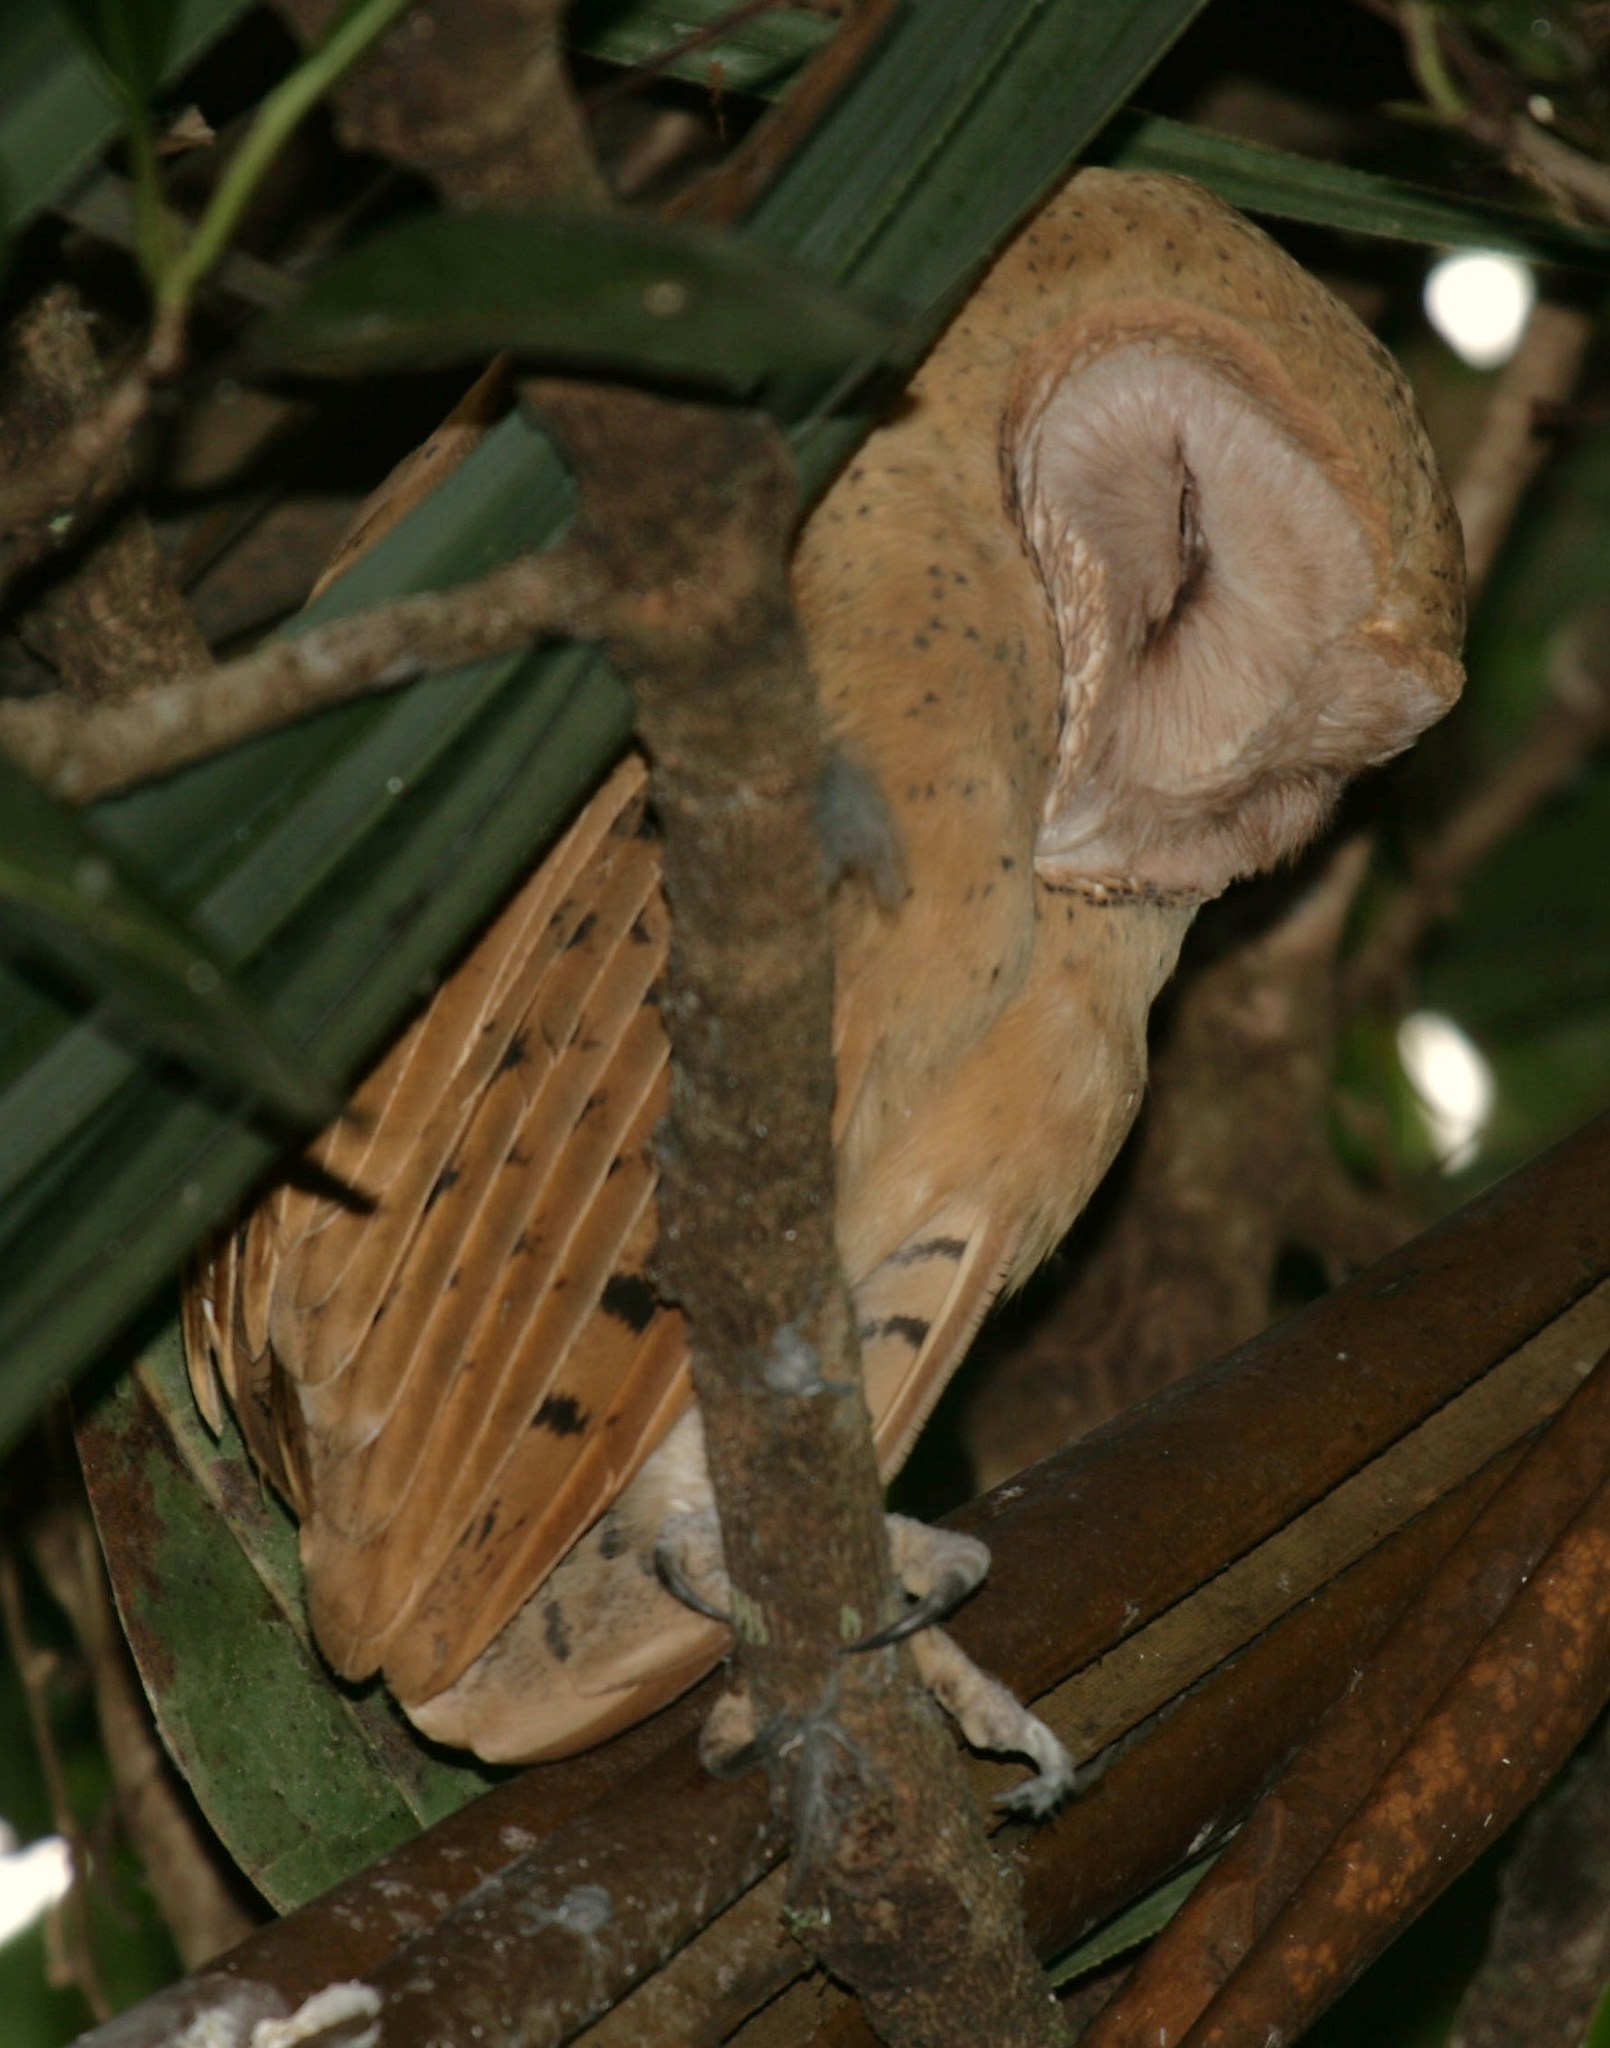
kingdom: Animalia
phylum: Chordata
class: Aves
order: Strigiformes
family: Tytonidae
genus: Tyto
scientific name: Tyto soumagnei
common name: Red owl
